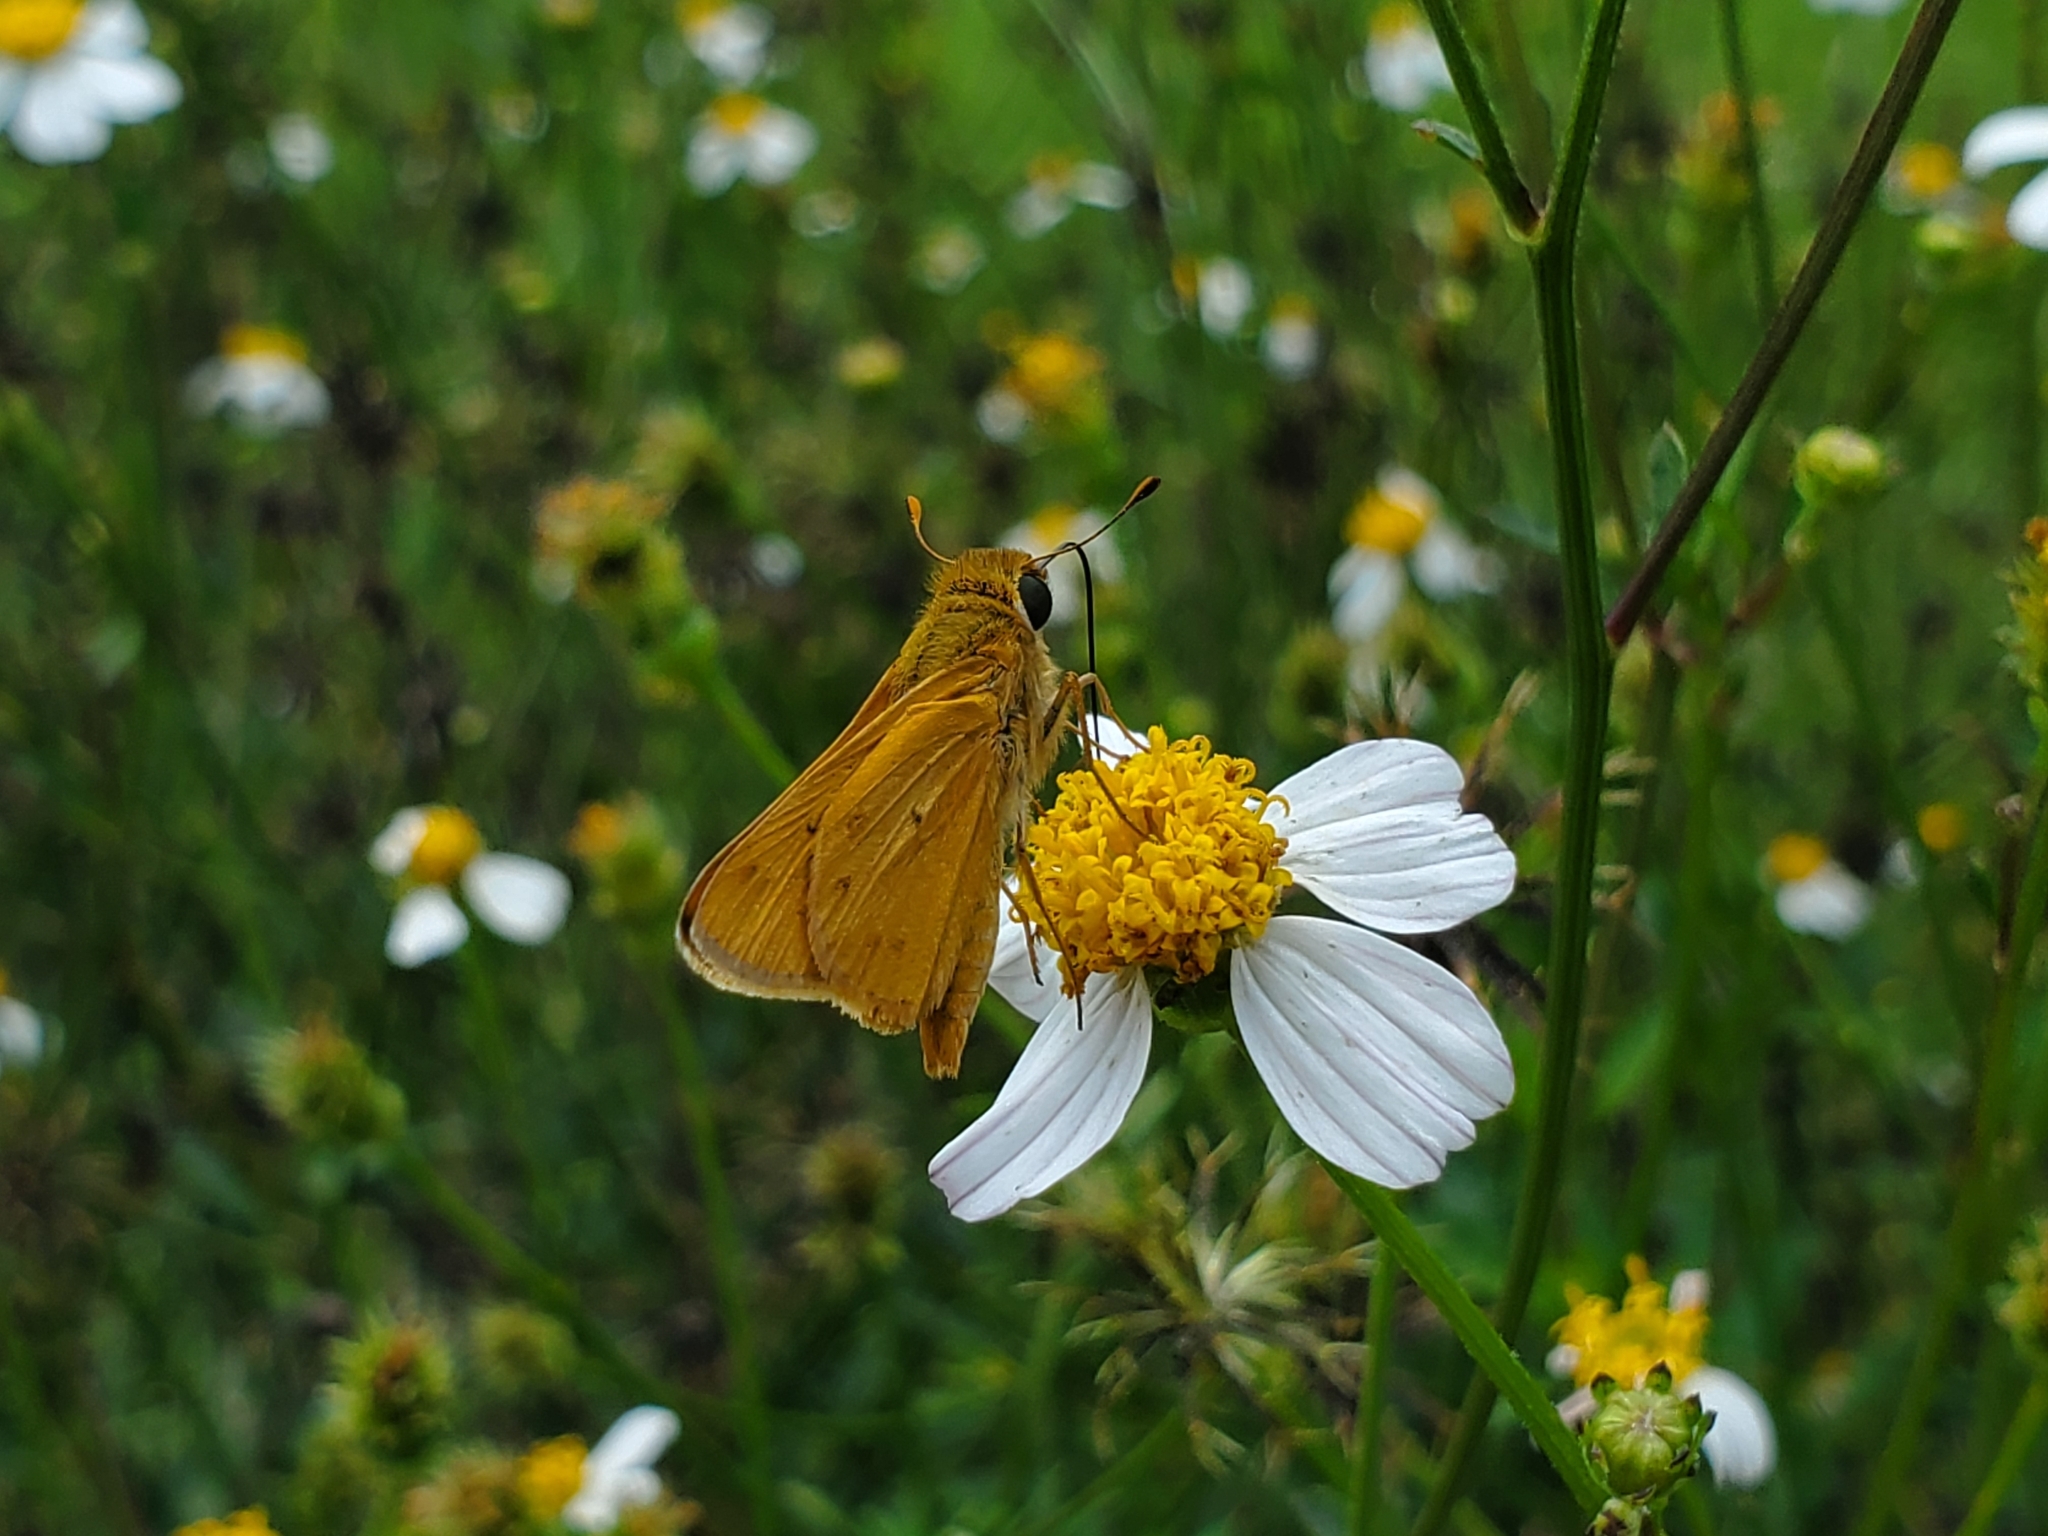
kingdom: Animalia
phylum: Arthropoda
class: Insecta
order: Lepidoptera
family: Hesperiidae
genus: Hylephila
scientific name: Hylephila phyleus
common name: Fiery skipper
